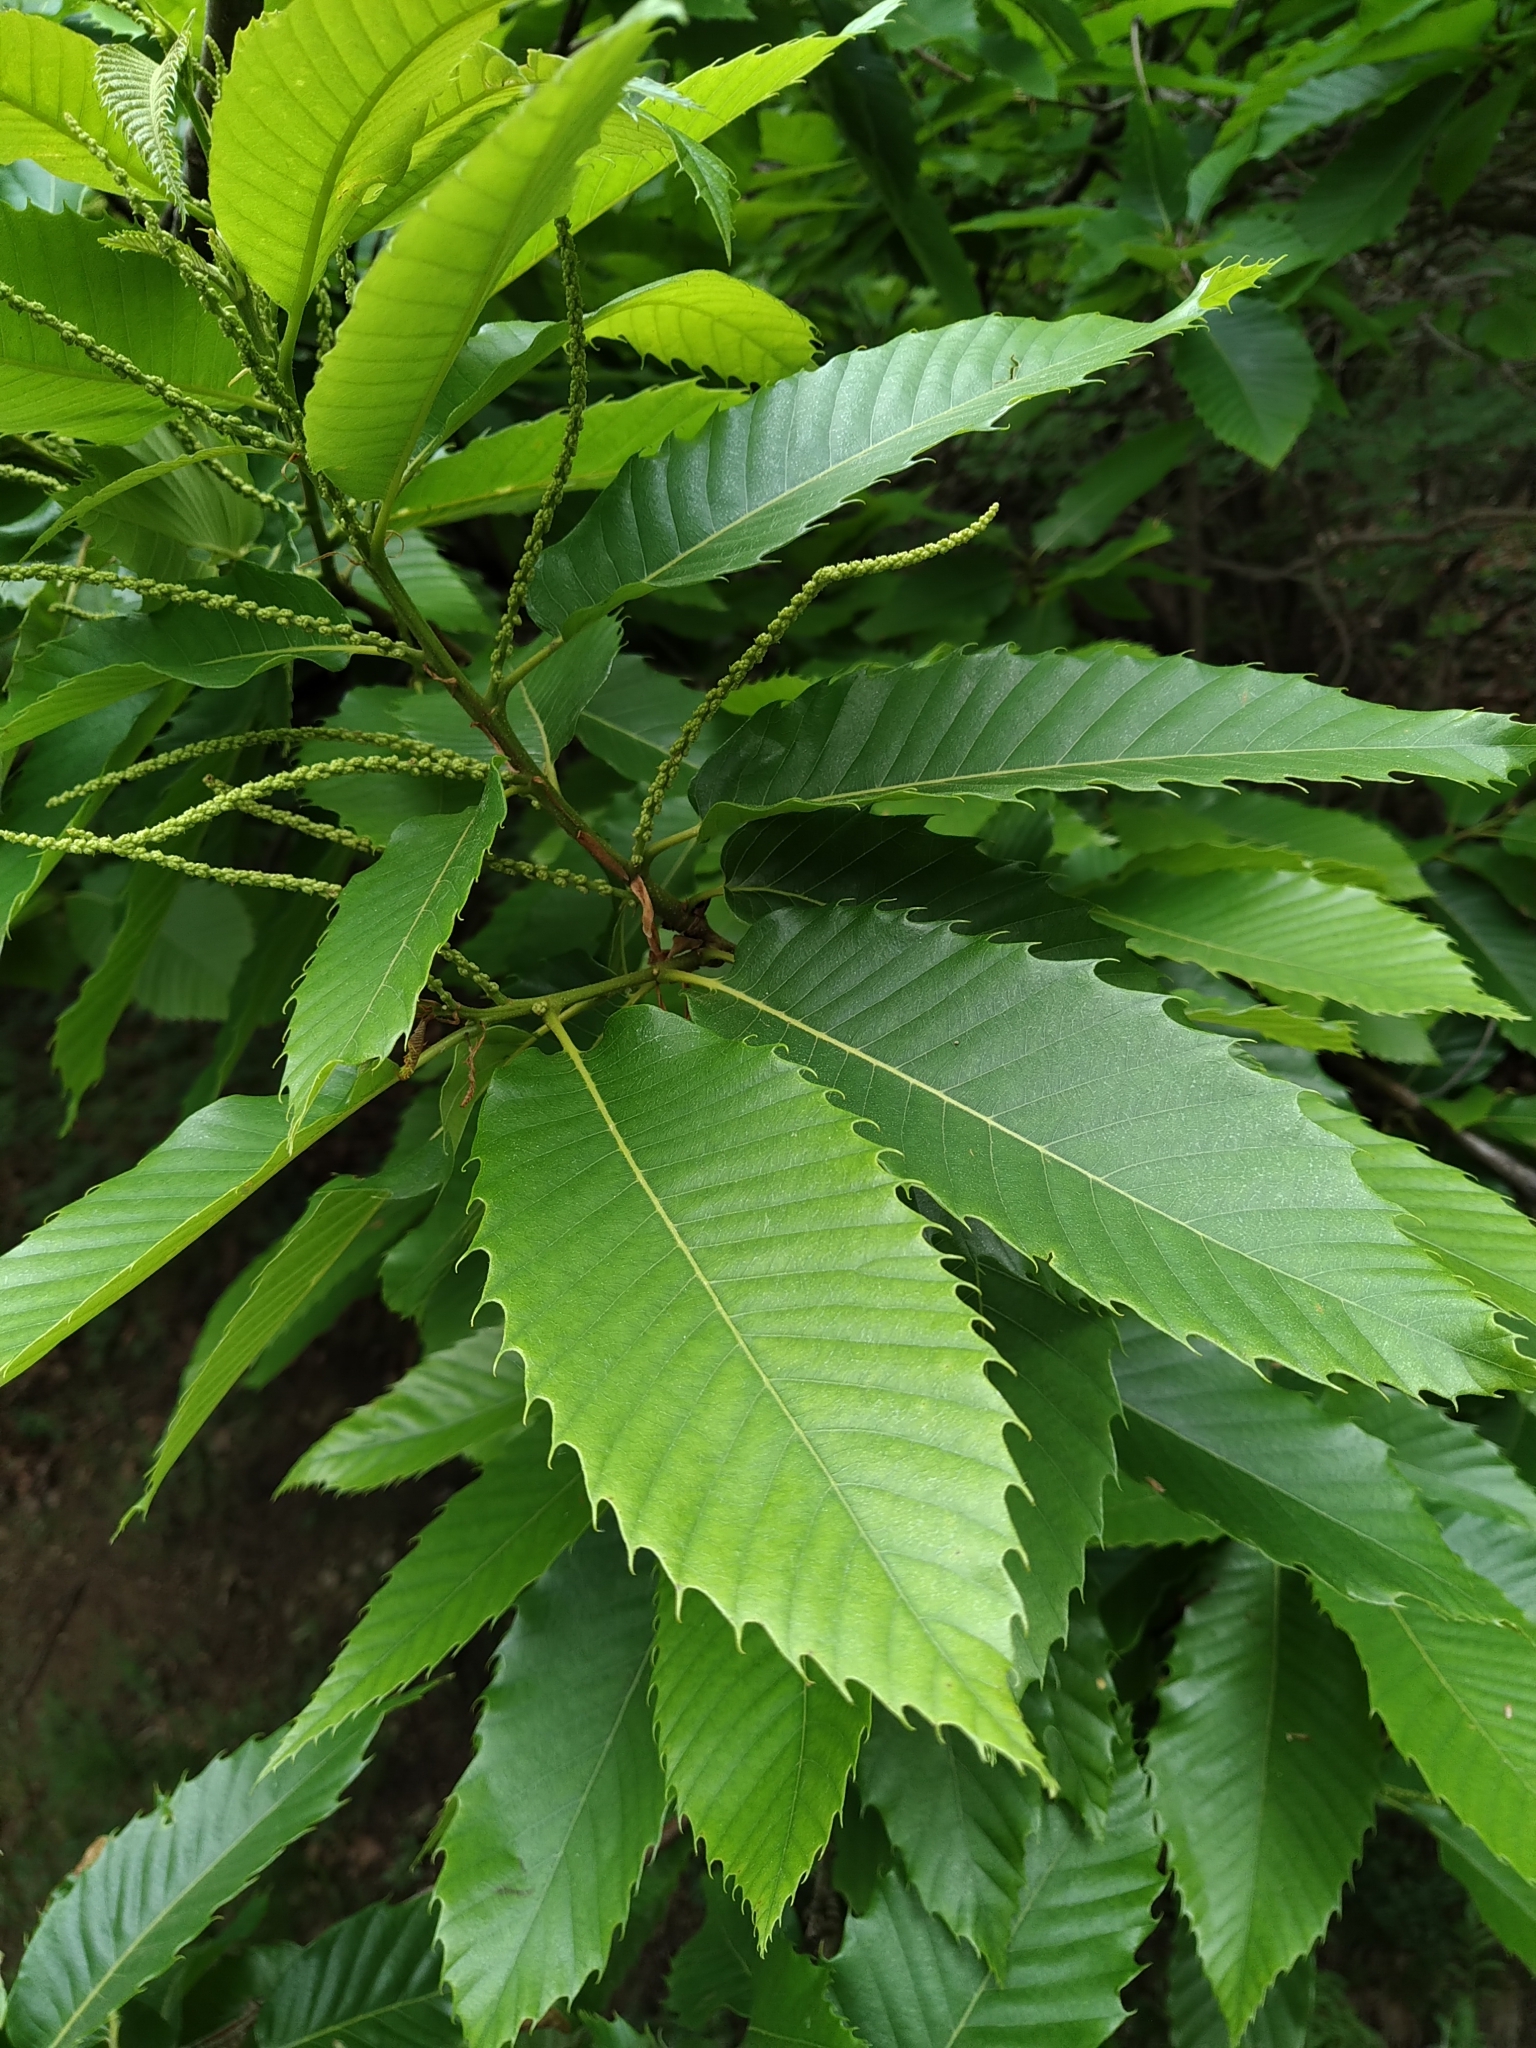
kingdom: Plantae
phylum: Tracheophyta
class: Magnoliopsida
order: Fagales
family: Fagaceae
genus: Castanea
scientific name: Castanea sativa
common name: Sweet chestnut
